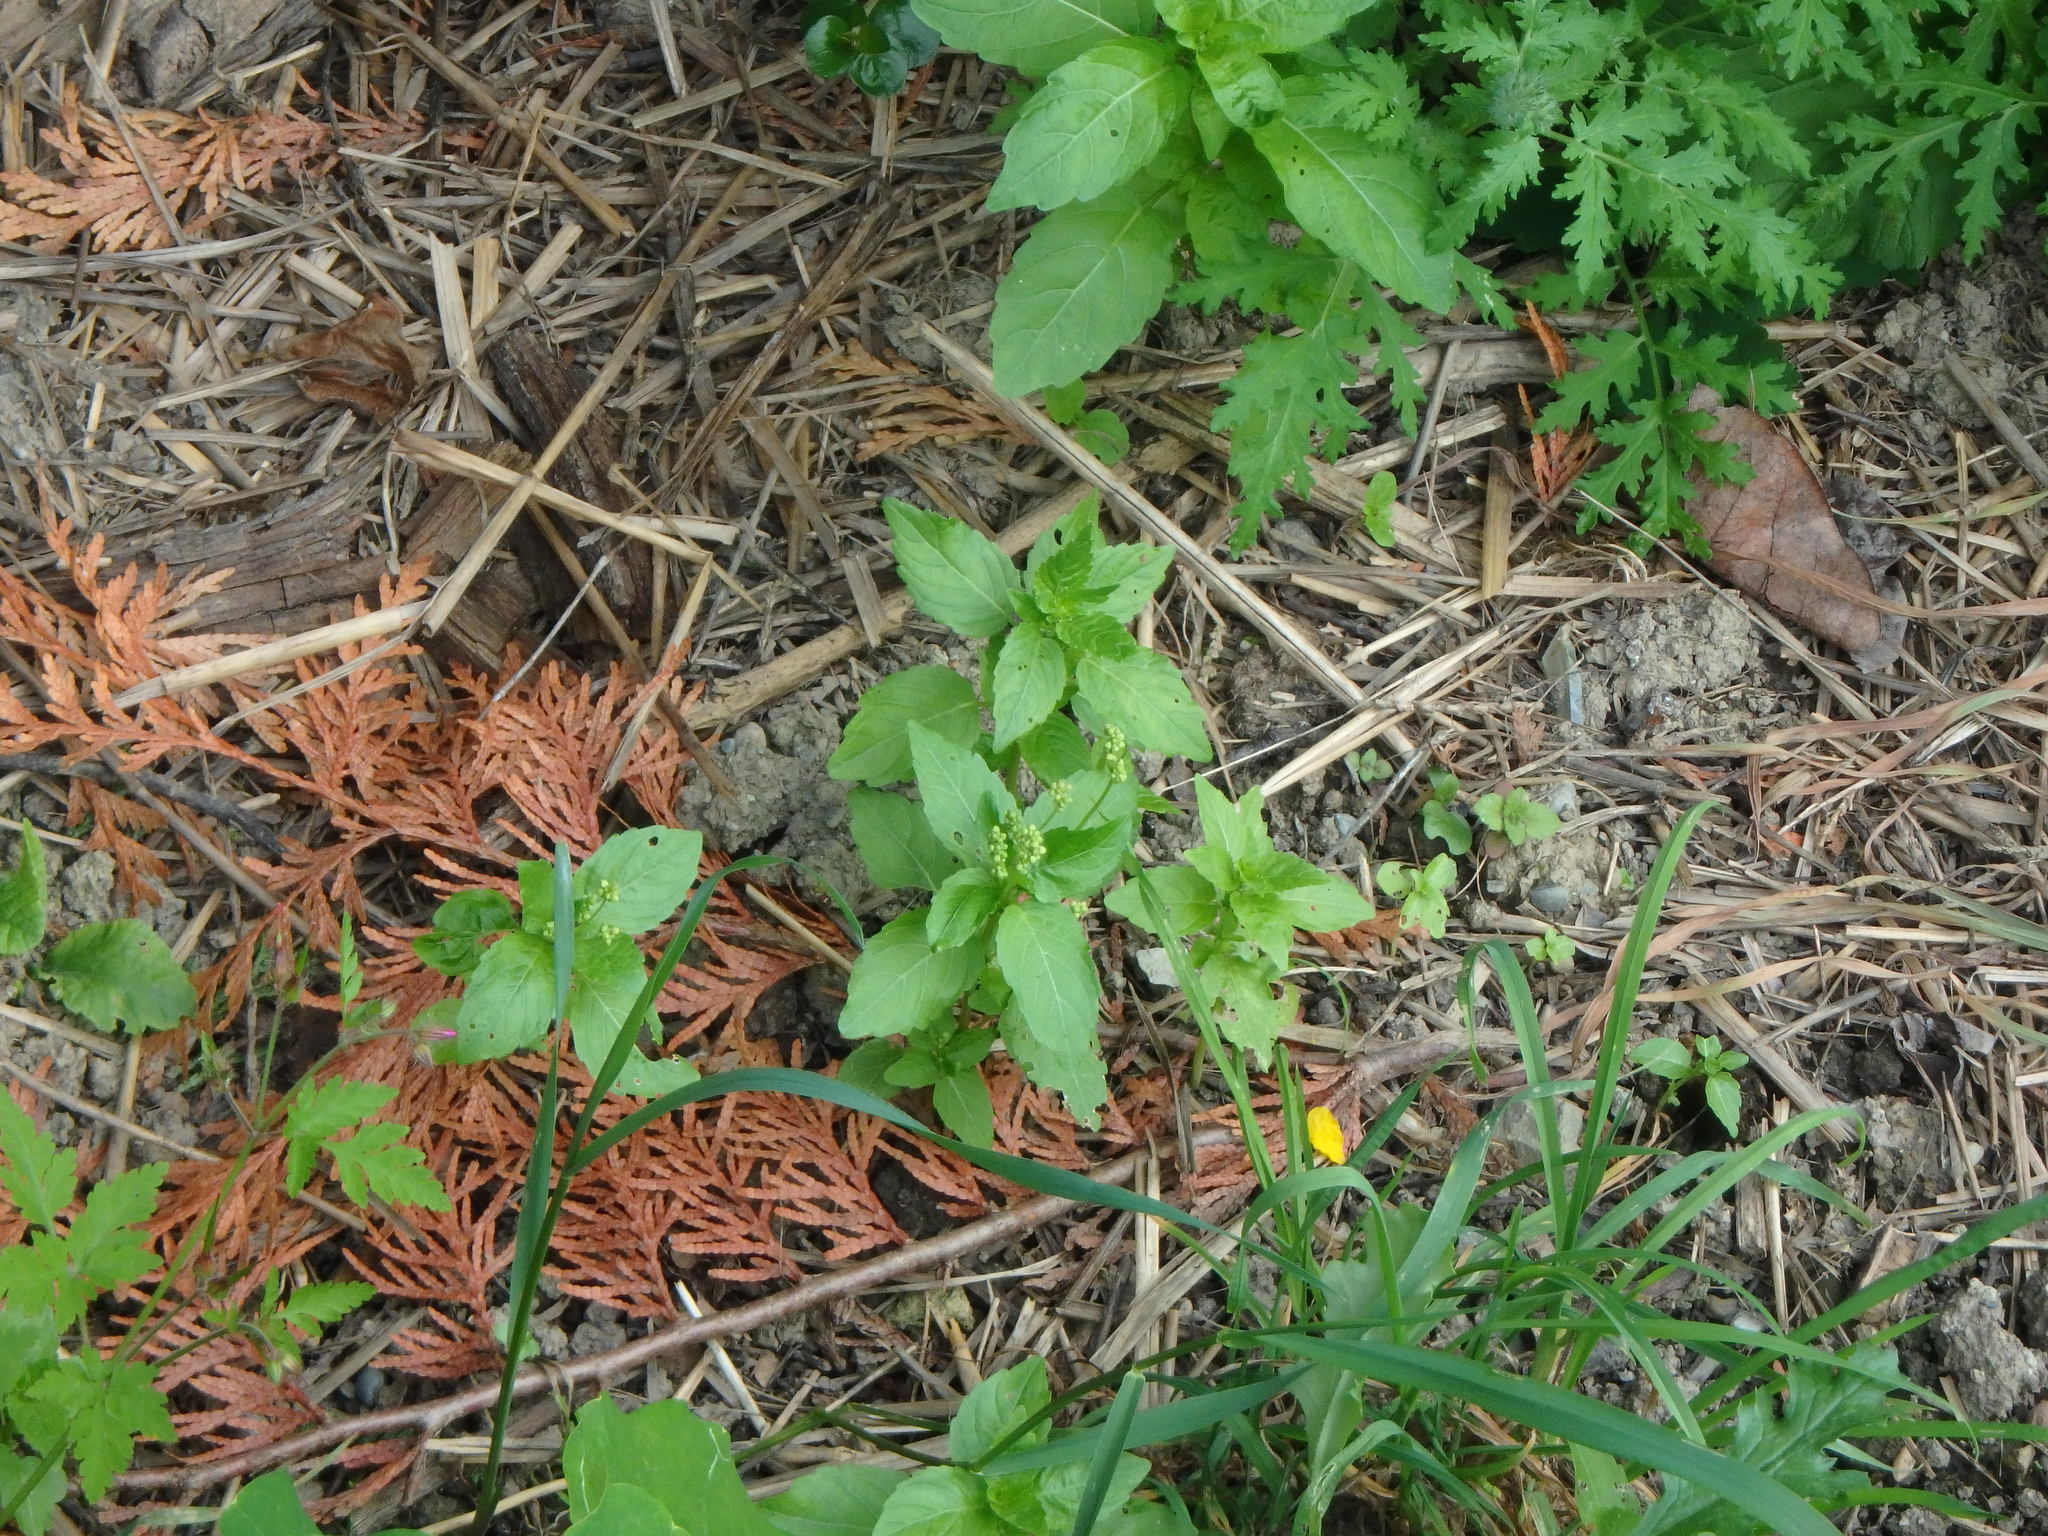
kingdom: Plantae
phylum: Tracheophyta
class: Magnoliopsida
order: Malpighiales
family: Euphorbiaceae
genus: Mercurialis
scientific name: Mercurialis annua
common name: Annual mercury
